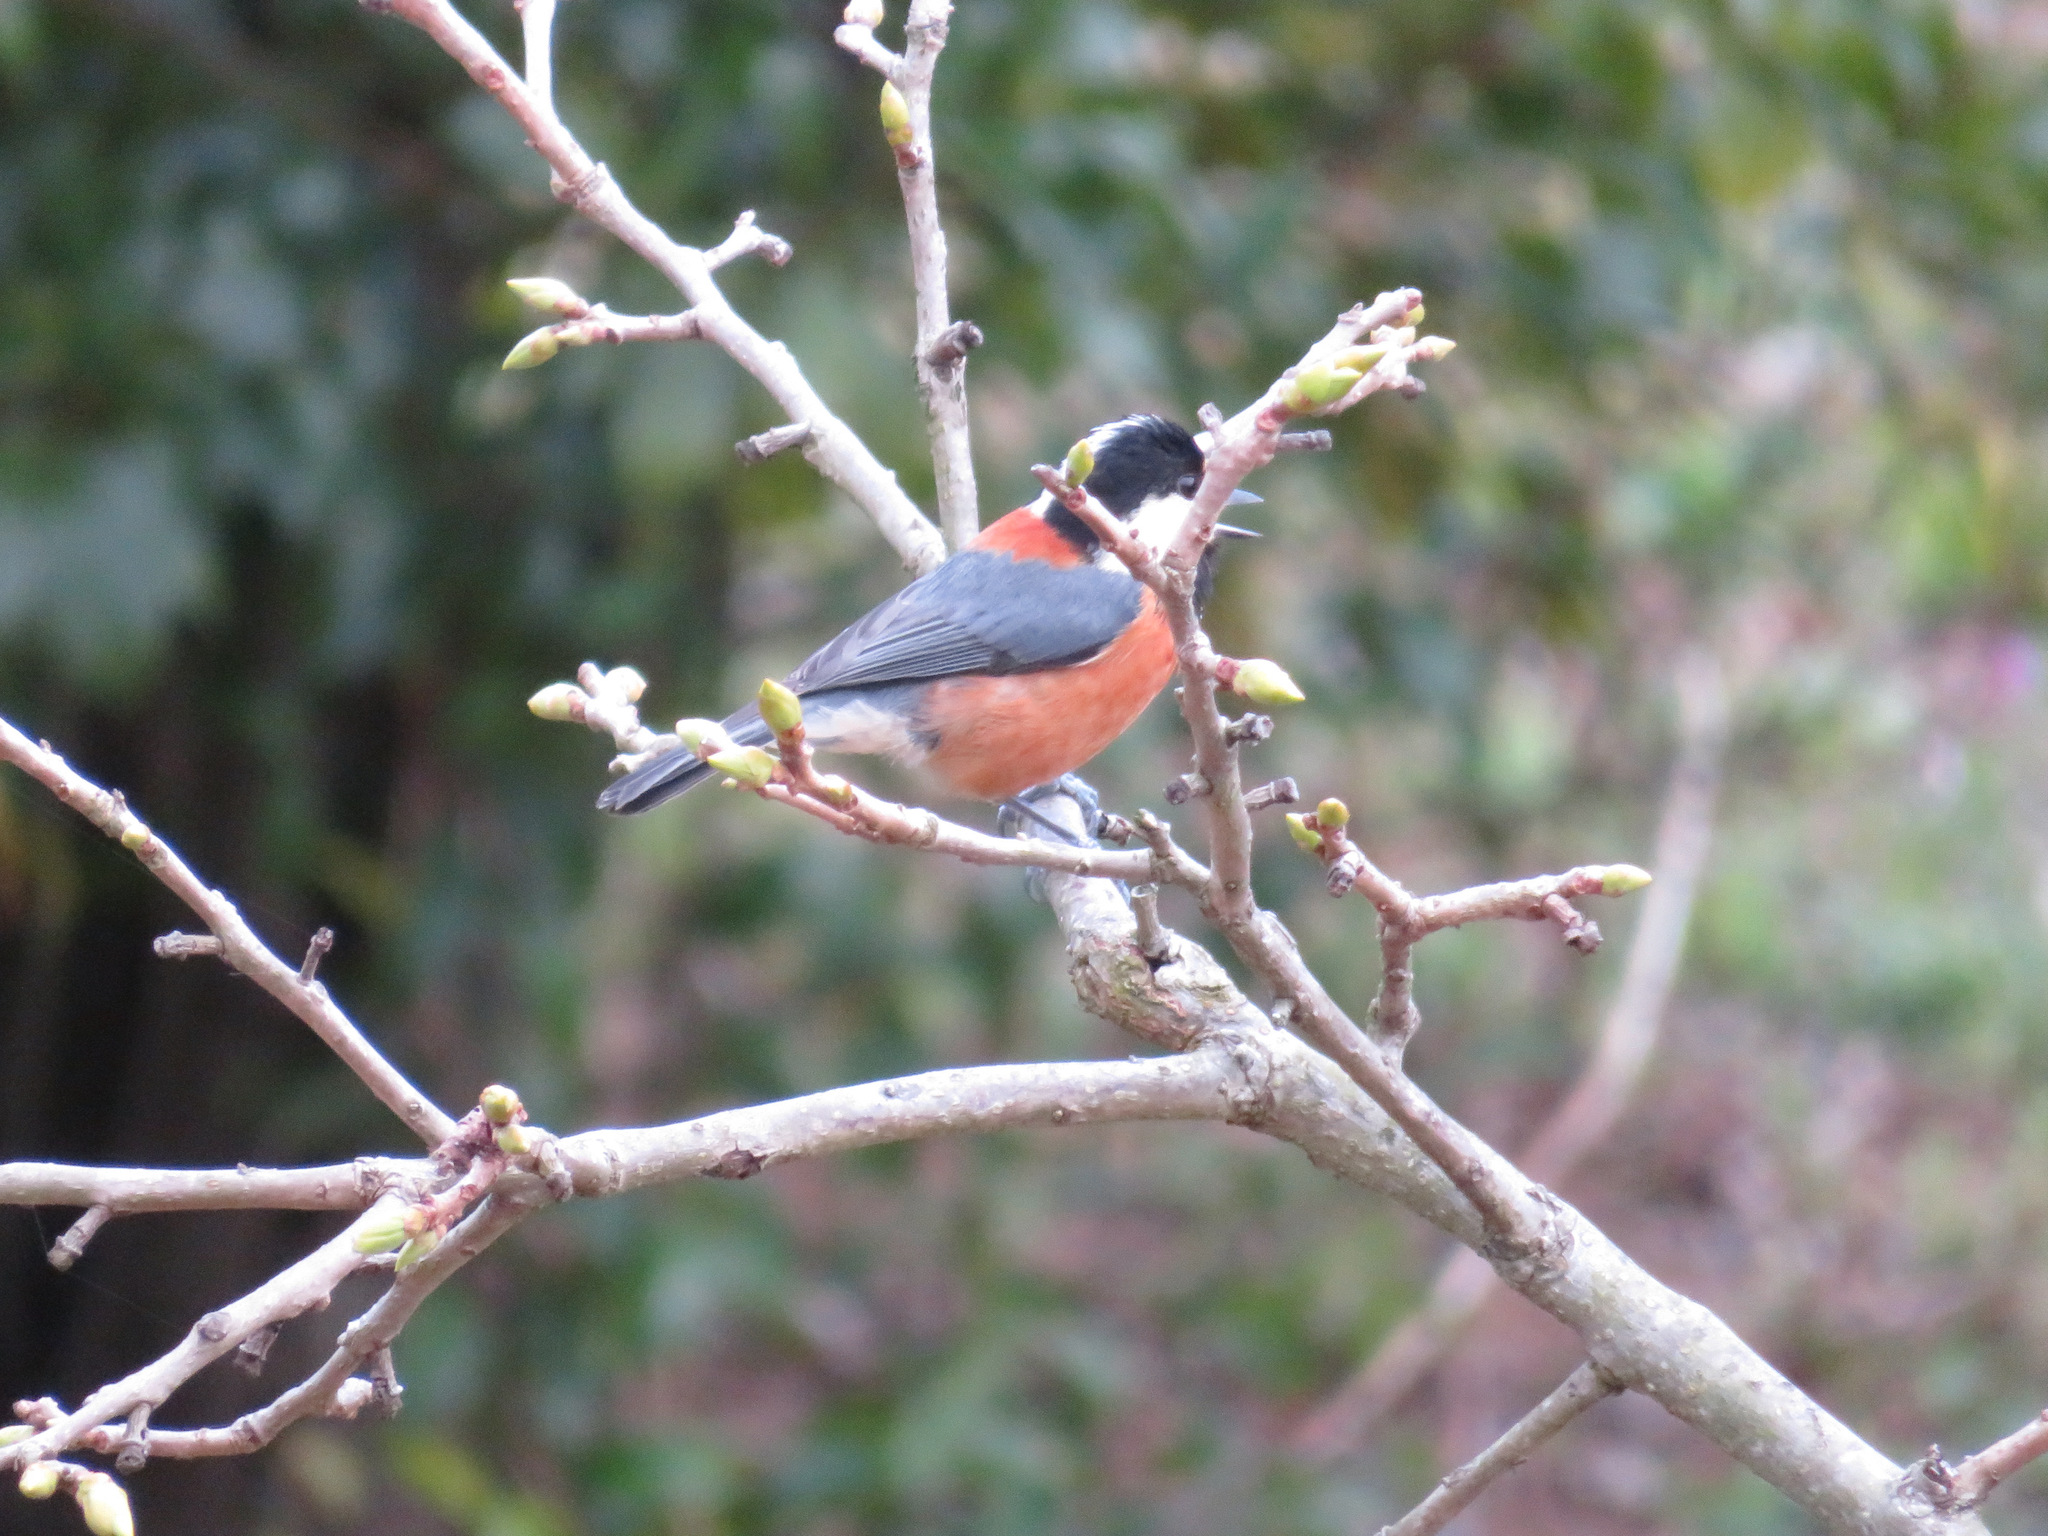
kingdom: Animalia
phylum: Chordata
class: Aves
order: Passeriformes
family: Paridae
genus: Poecile
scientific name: Poecile varius
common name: Varied tit
